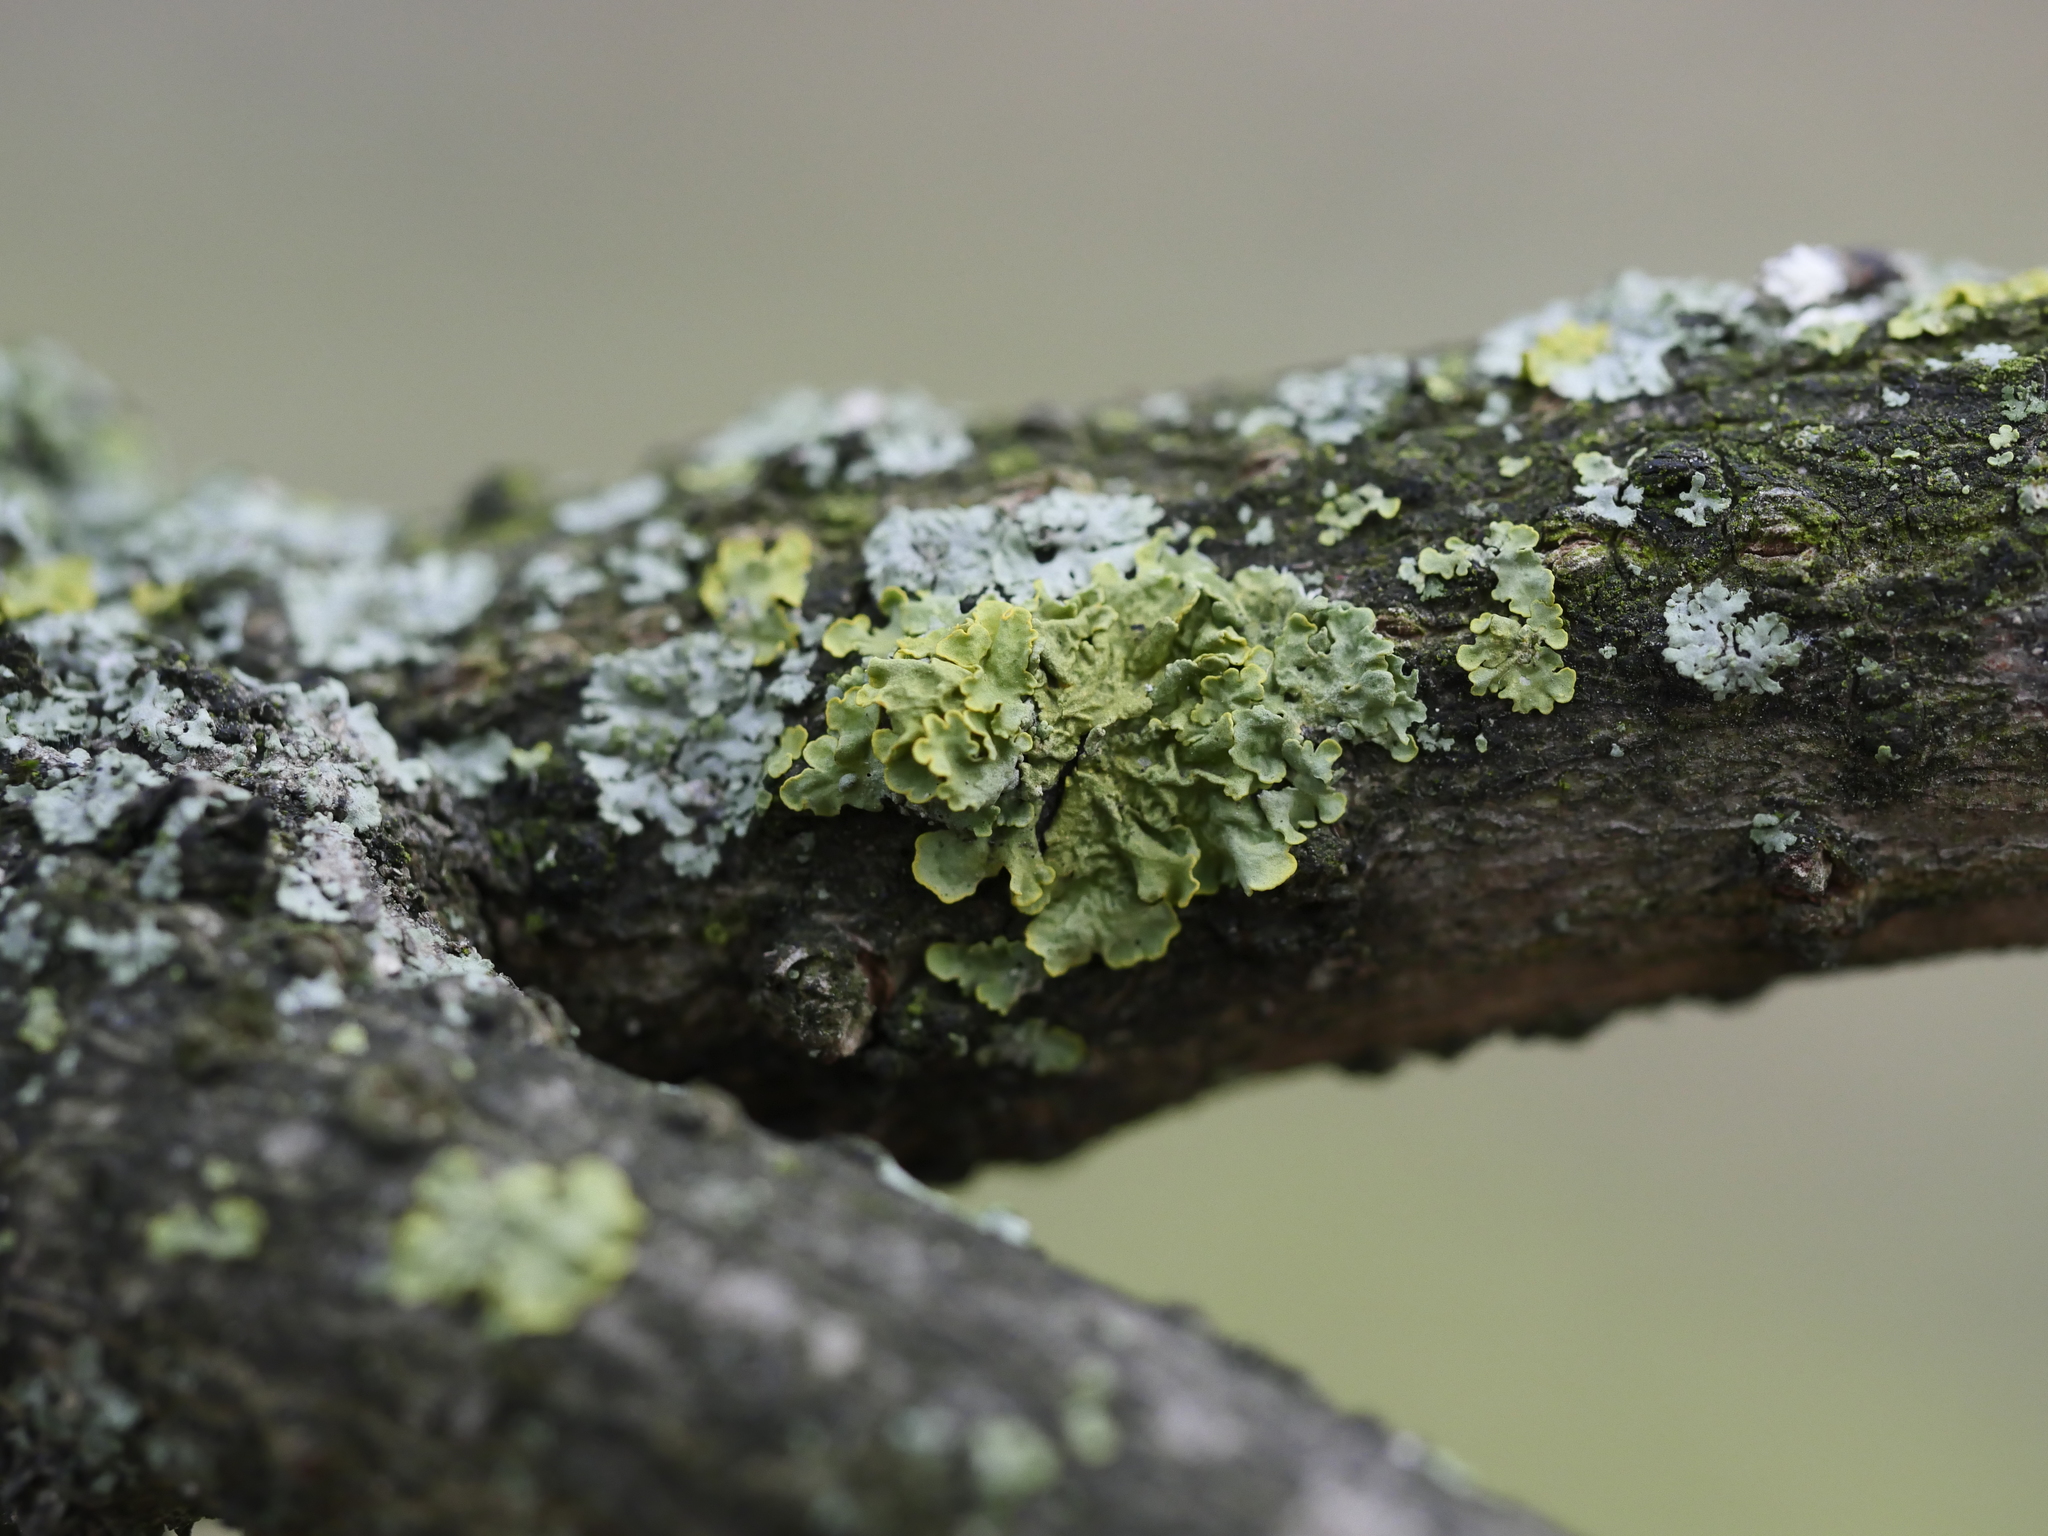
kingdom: Fungi
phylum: Ascomycota
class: Lecanoromycetes
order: Teloschistales
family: Teloschistaceae
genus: Xanthoria
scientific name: Xanthoria parietina
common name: Common orange lichen
